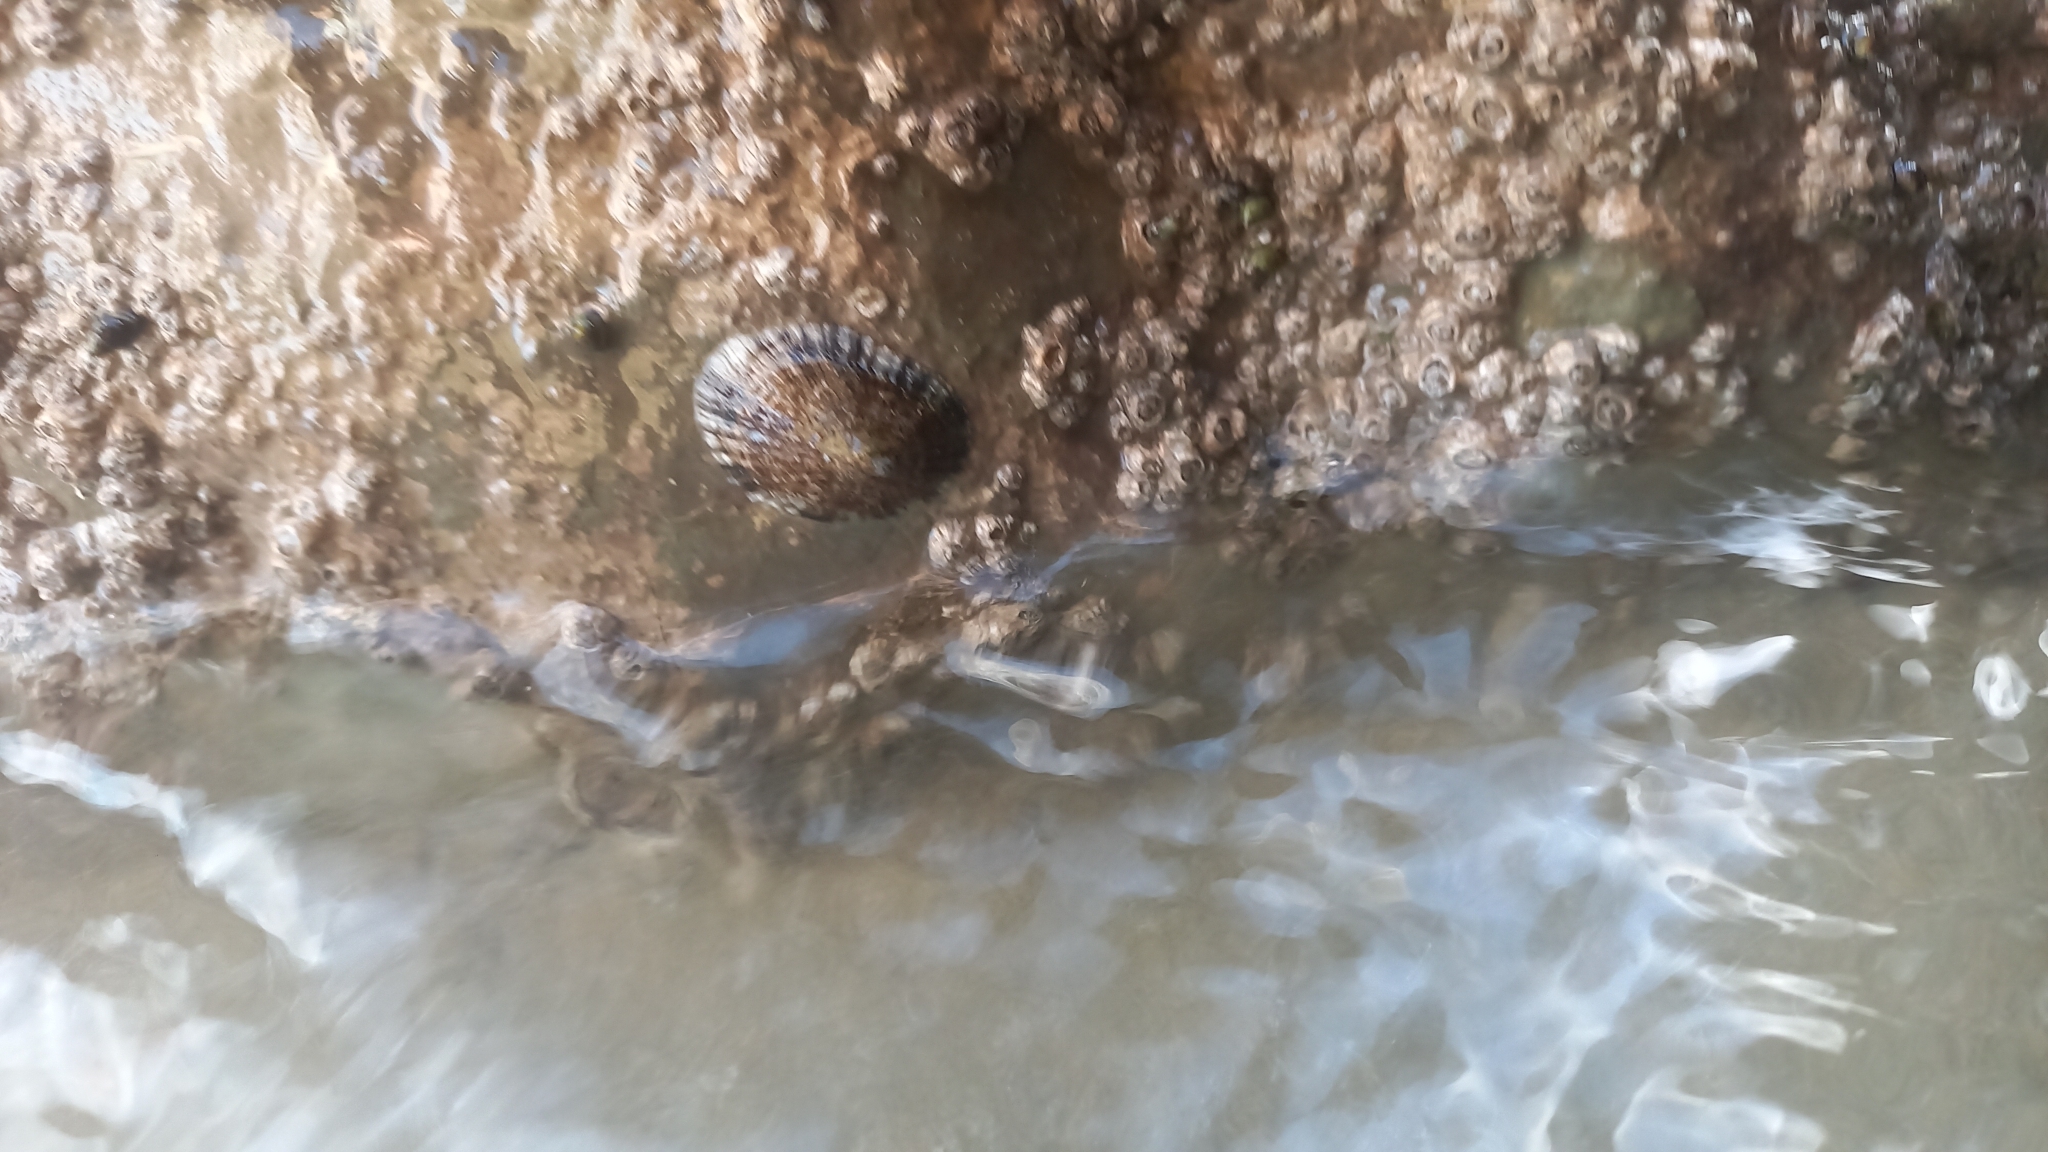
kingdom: Animalia
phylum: Mollusca
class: Gastropoda
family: Patellidae
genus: Patella
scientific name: Patella caerulea
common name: Mediterranean limpet
